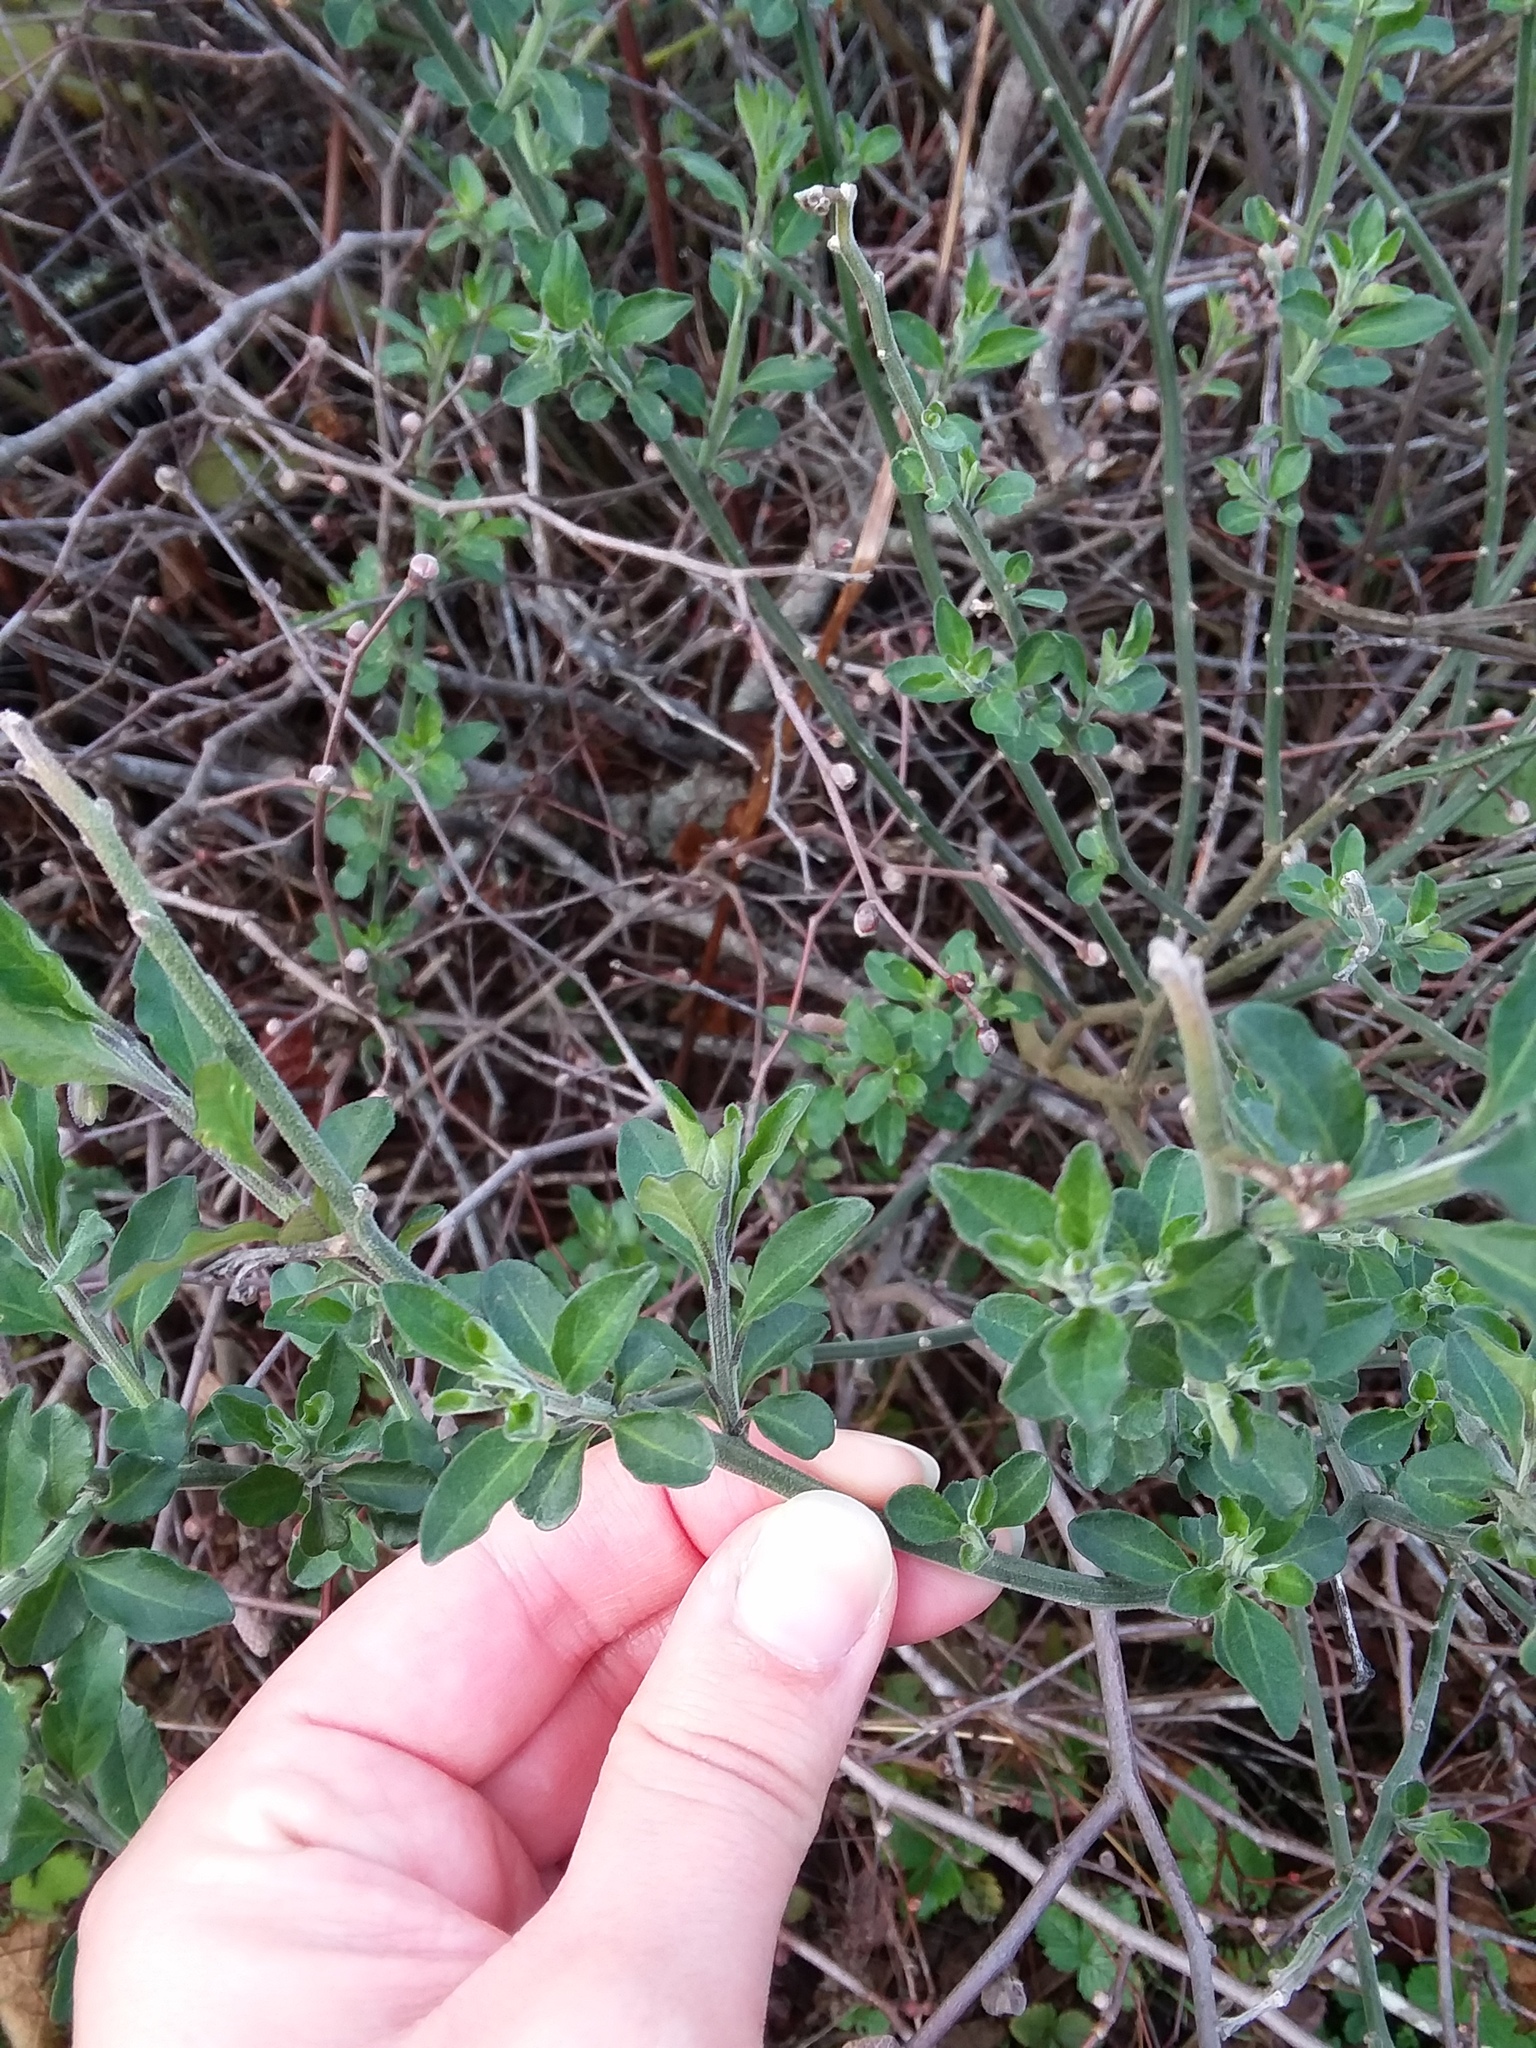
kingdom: Plantae
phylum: Tracheophyta
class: Magnoliopsida
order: Solanales
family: Solanaceae
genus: Solanum
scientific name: Solanum umbelliferum
